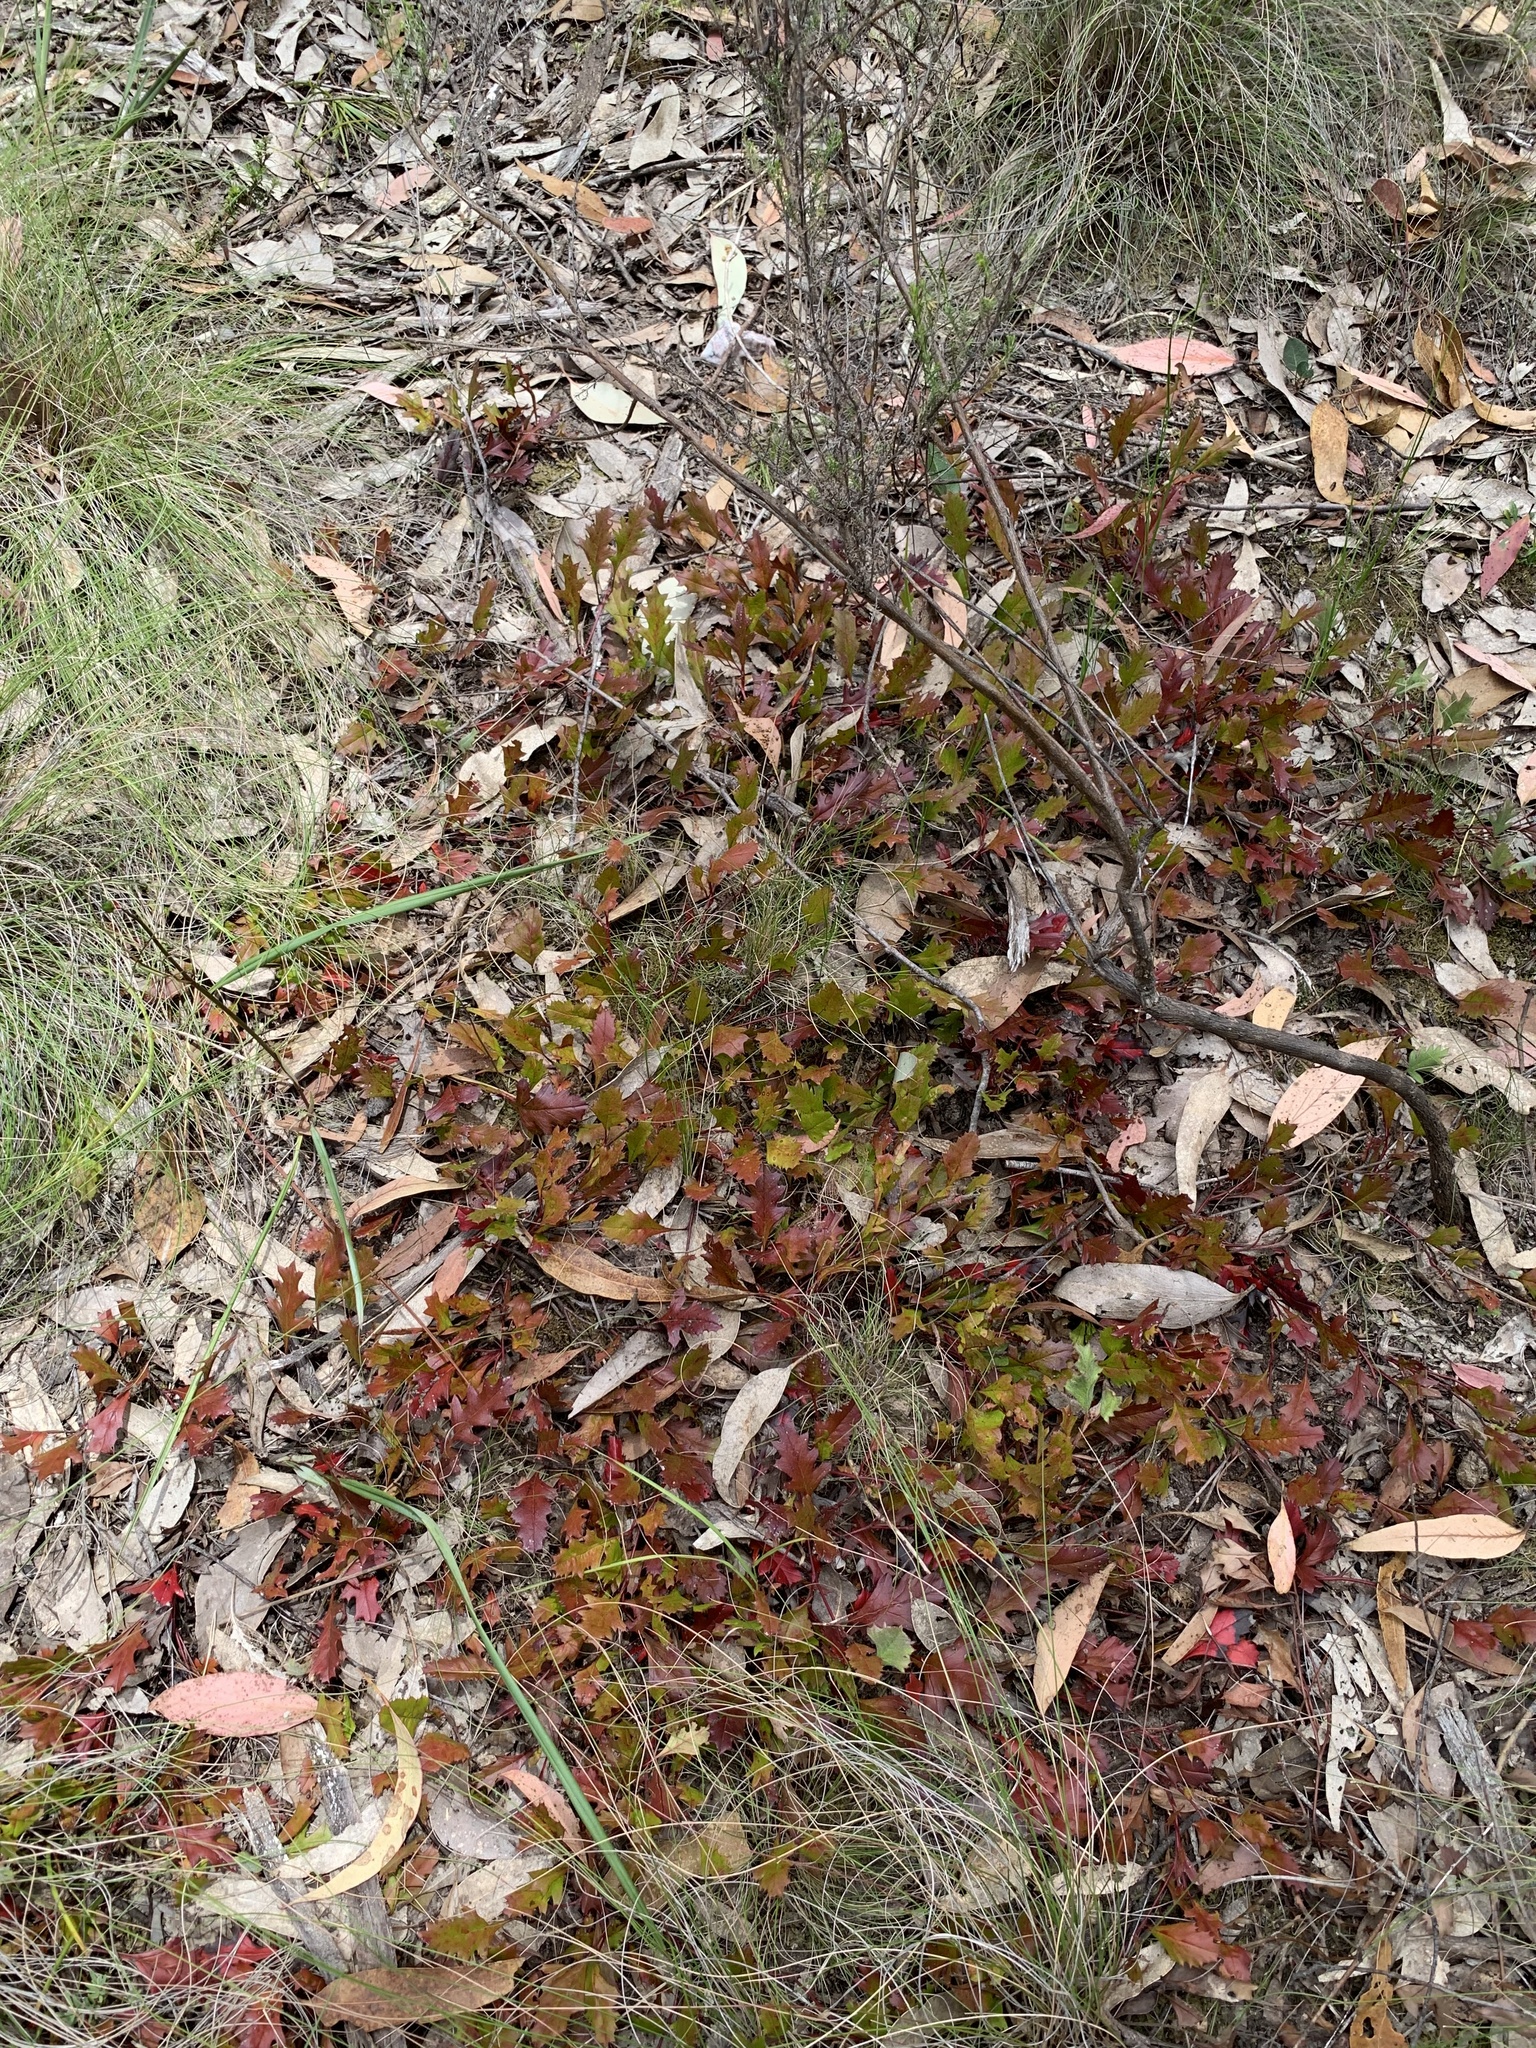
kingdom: Plantae
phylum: Tracheophyta
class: Magnoliopsida
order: Proteales
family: Proteaceae
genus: Grevillea
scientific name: Grevillea obtecta
